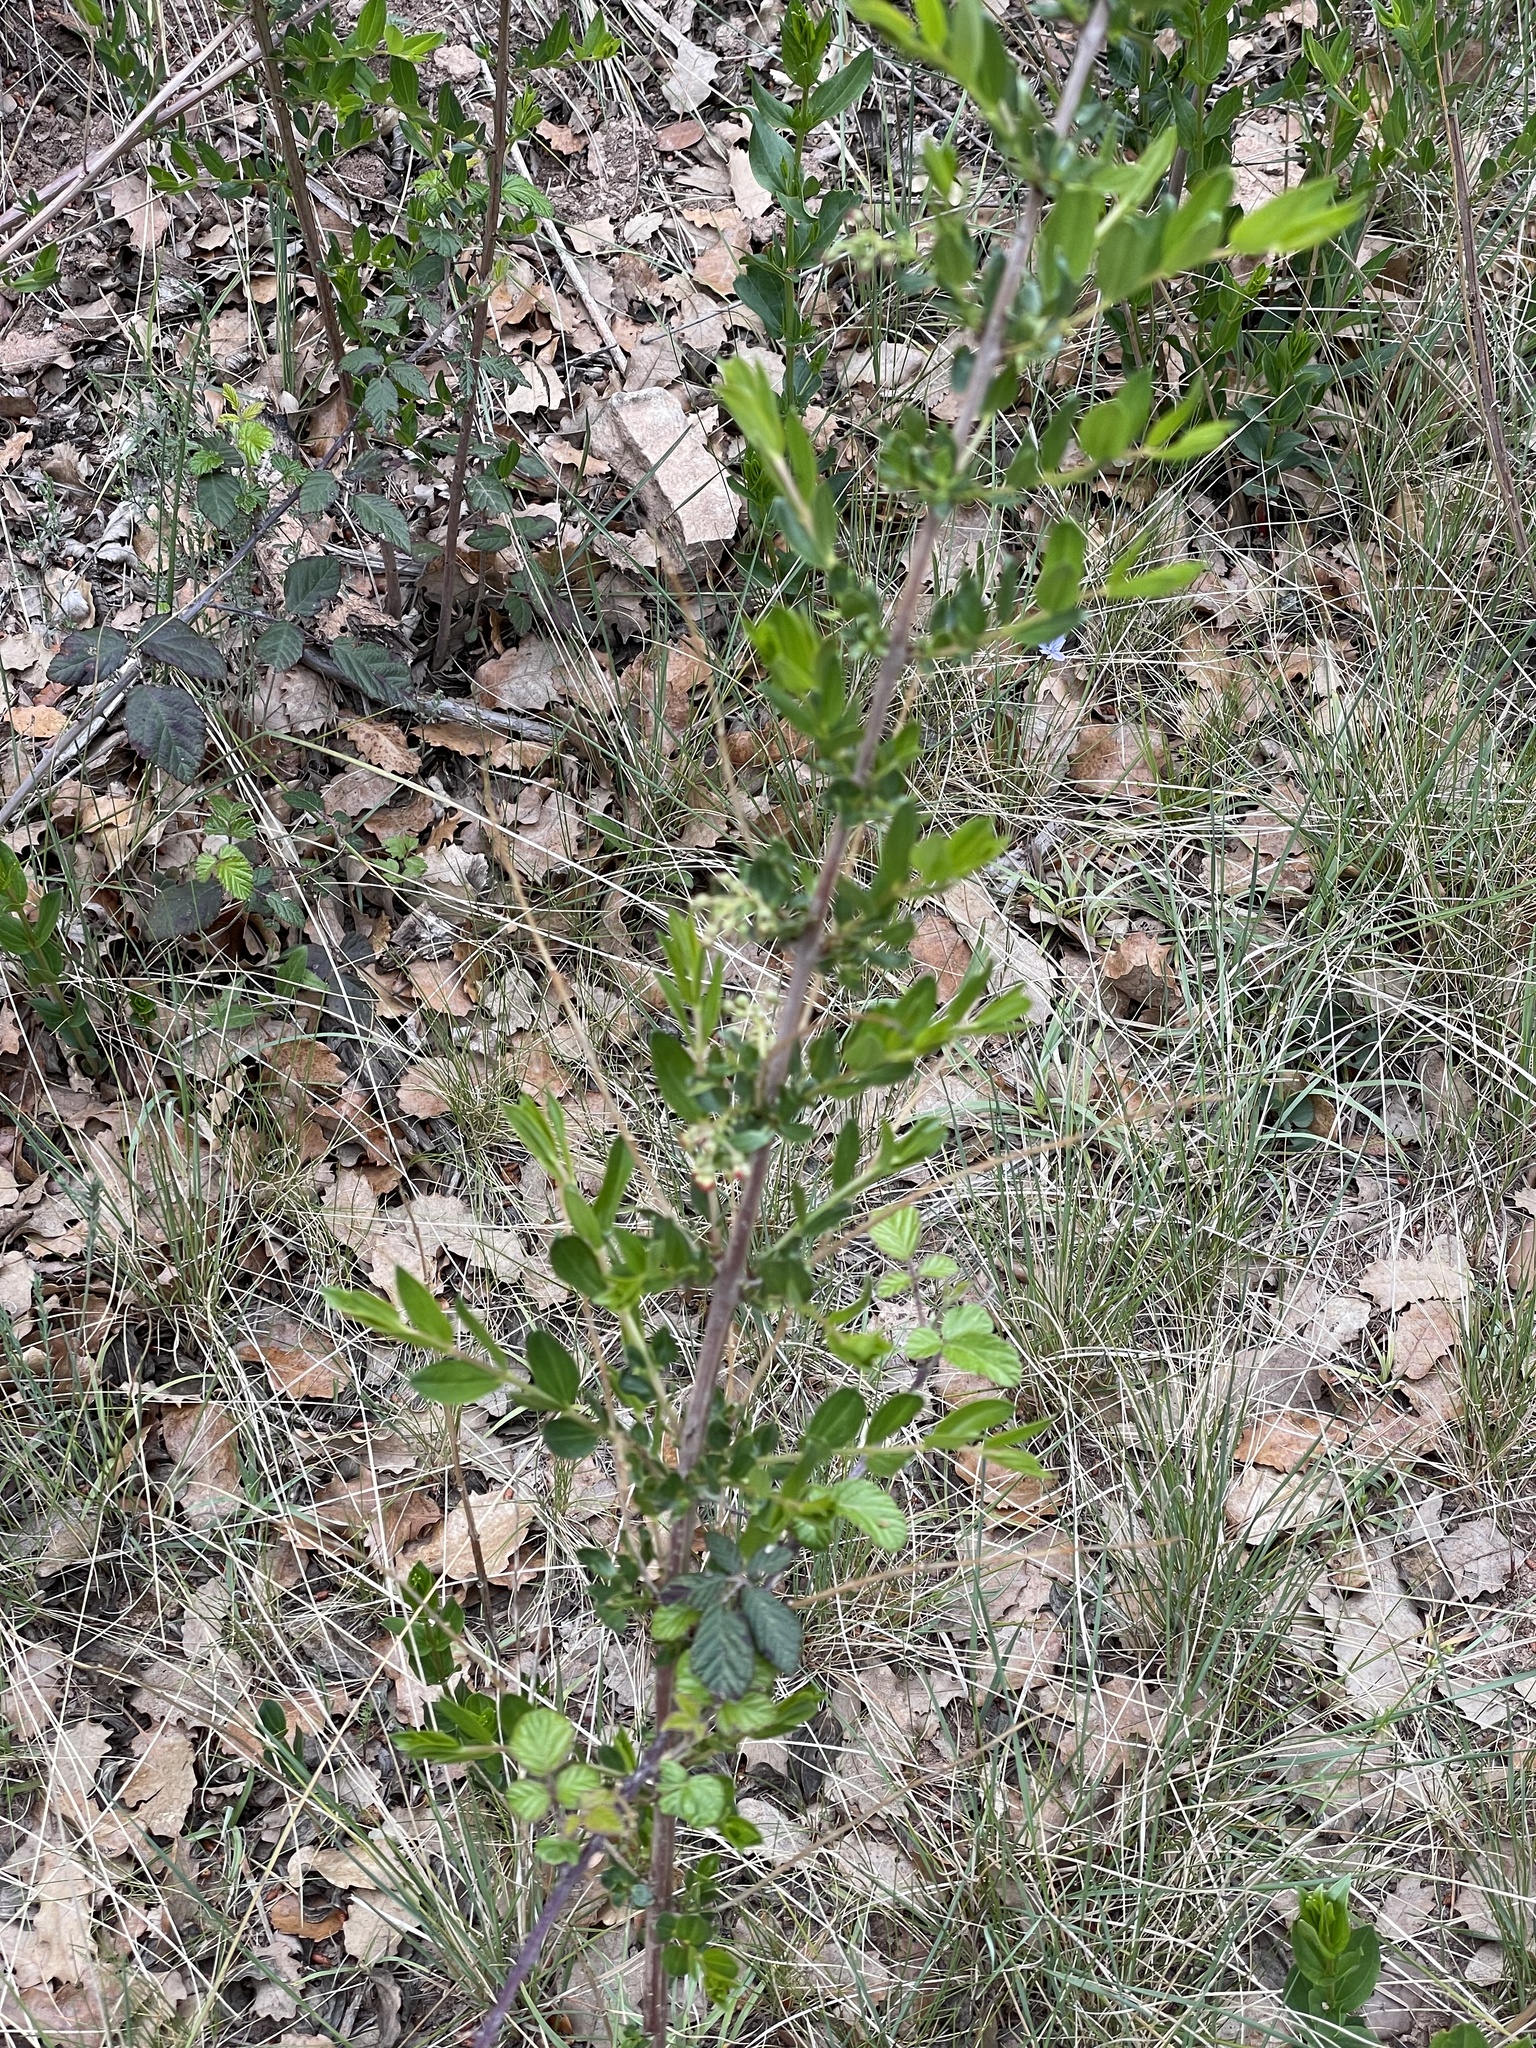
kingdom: Plantae
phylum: Tracheophyta
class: Magnoliopsida
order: Cucurbitales
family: Coriariaceae
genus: Coriaria
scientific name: Coriaria myrtifolia
